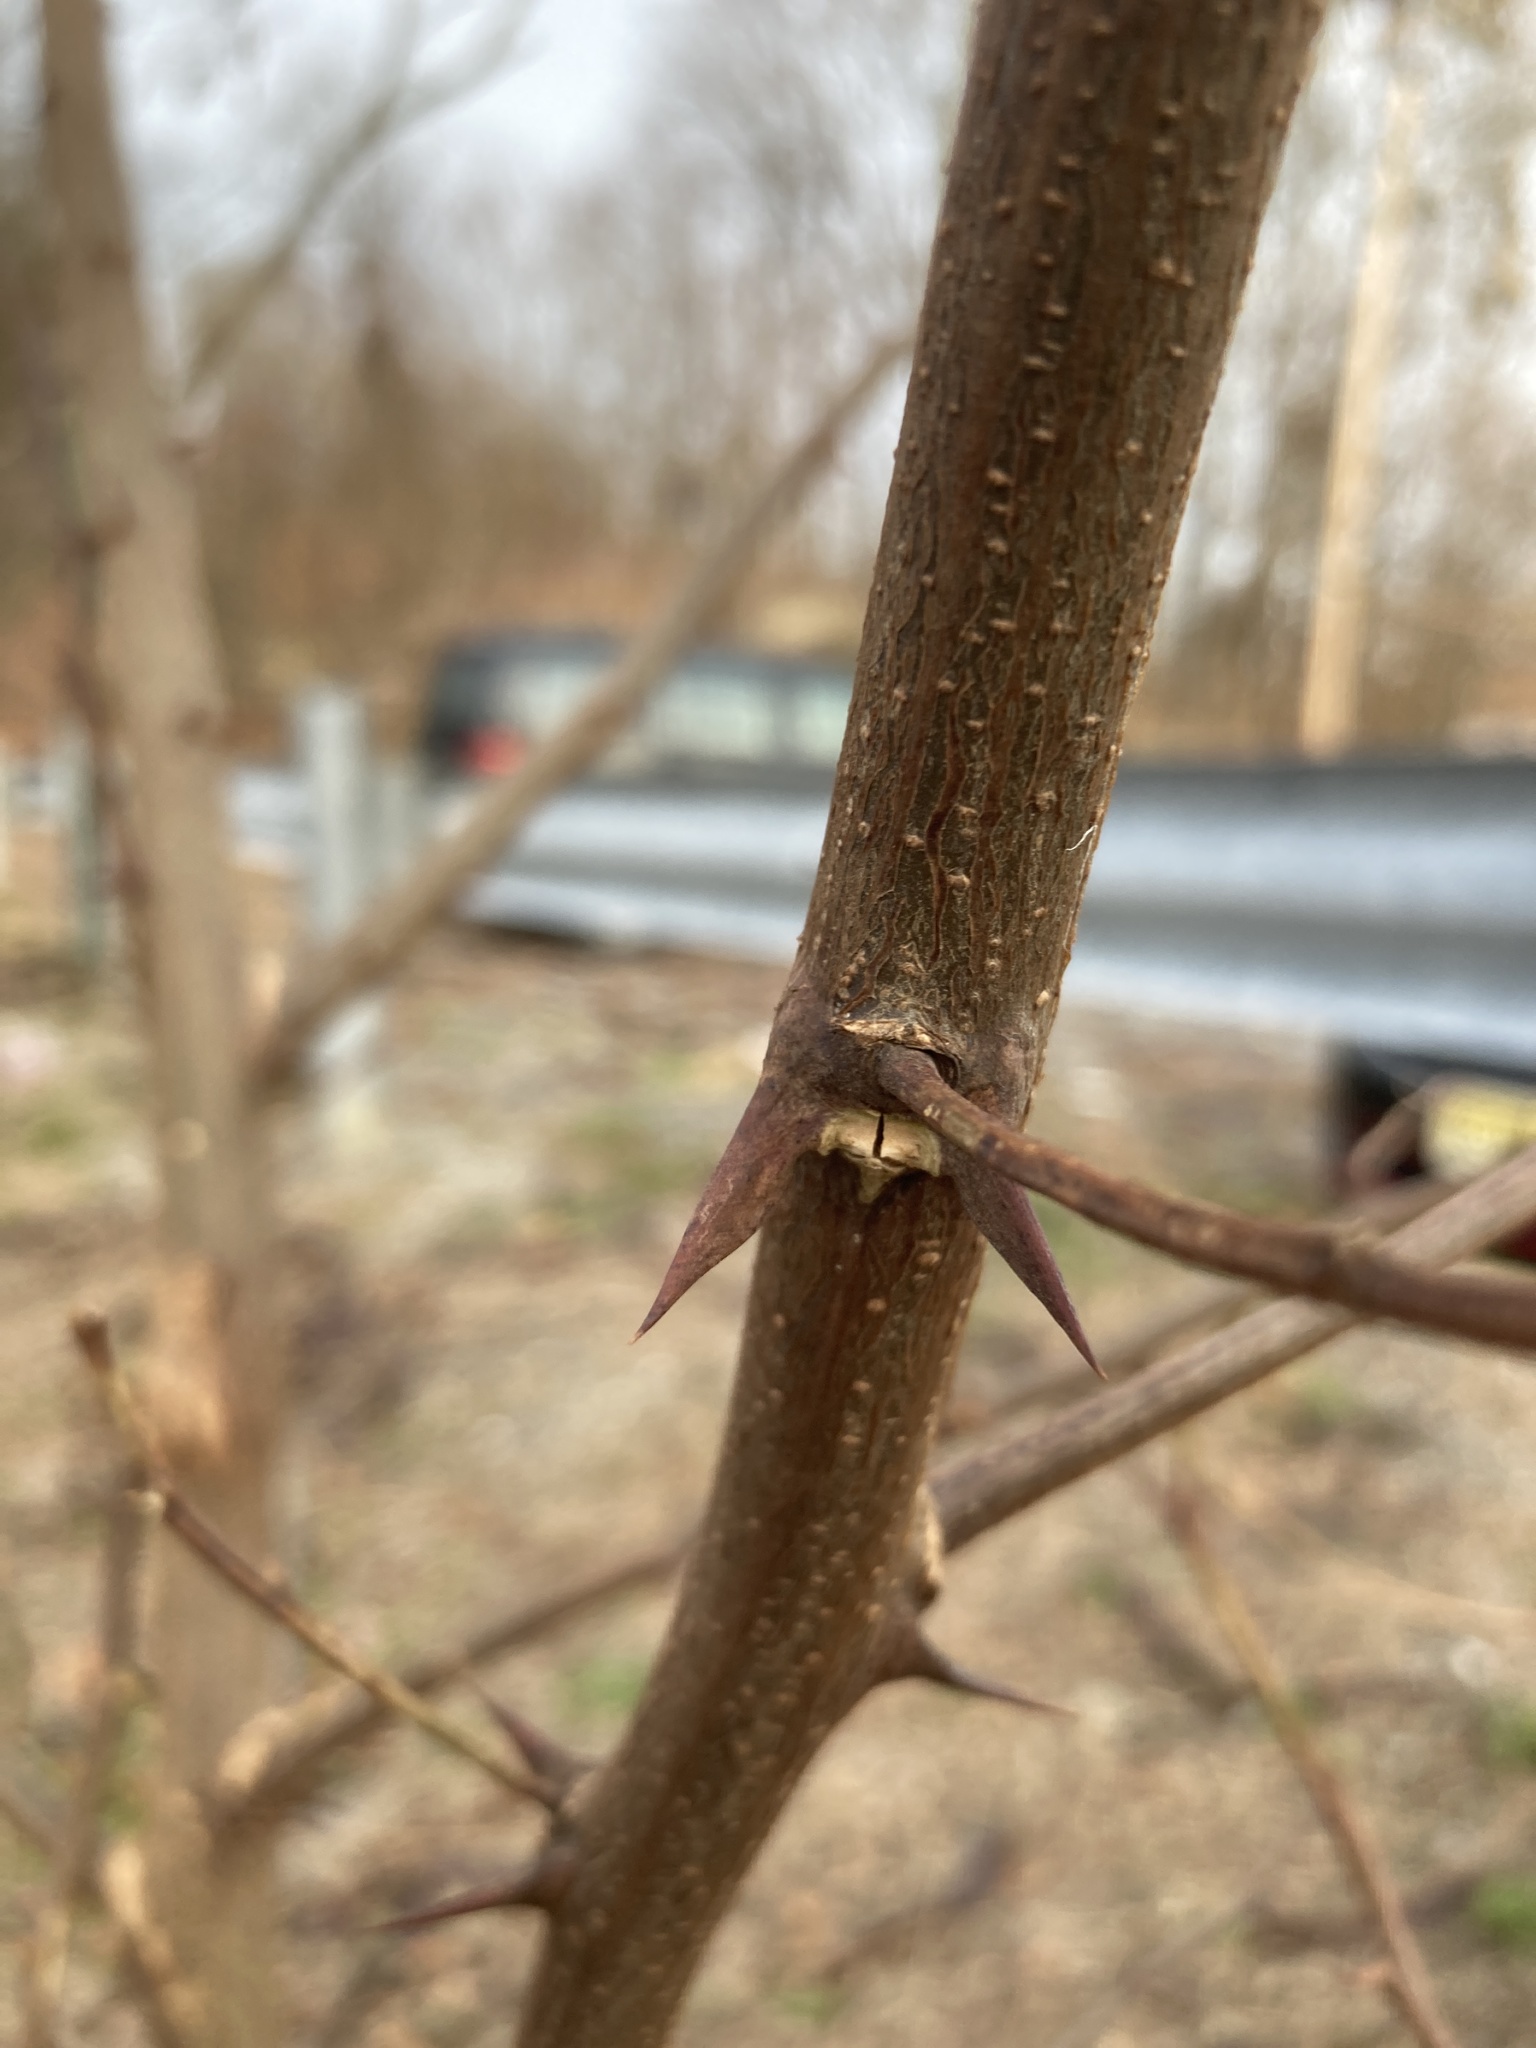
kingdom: Plantae
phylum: Tracheophyta
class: Magnoliopsida
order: Fabales
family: Fabaceae
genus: Robinia
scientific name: Robinia pseudoacacia
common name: Black locust
